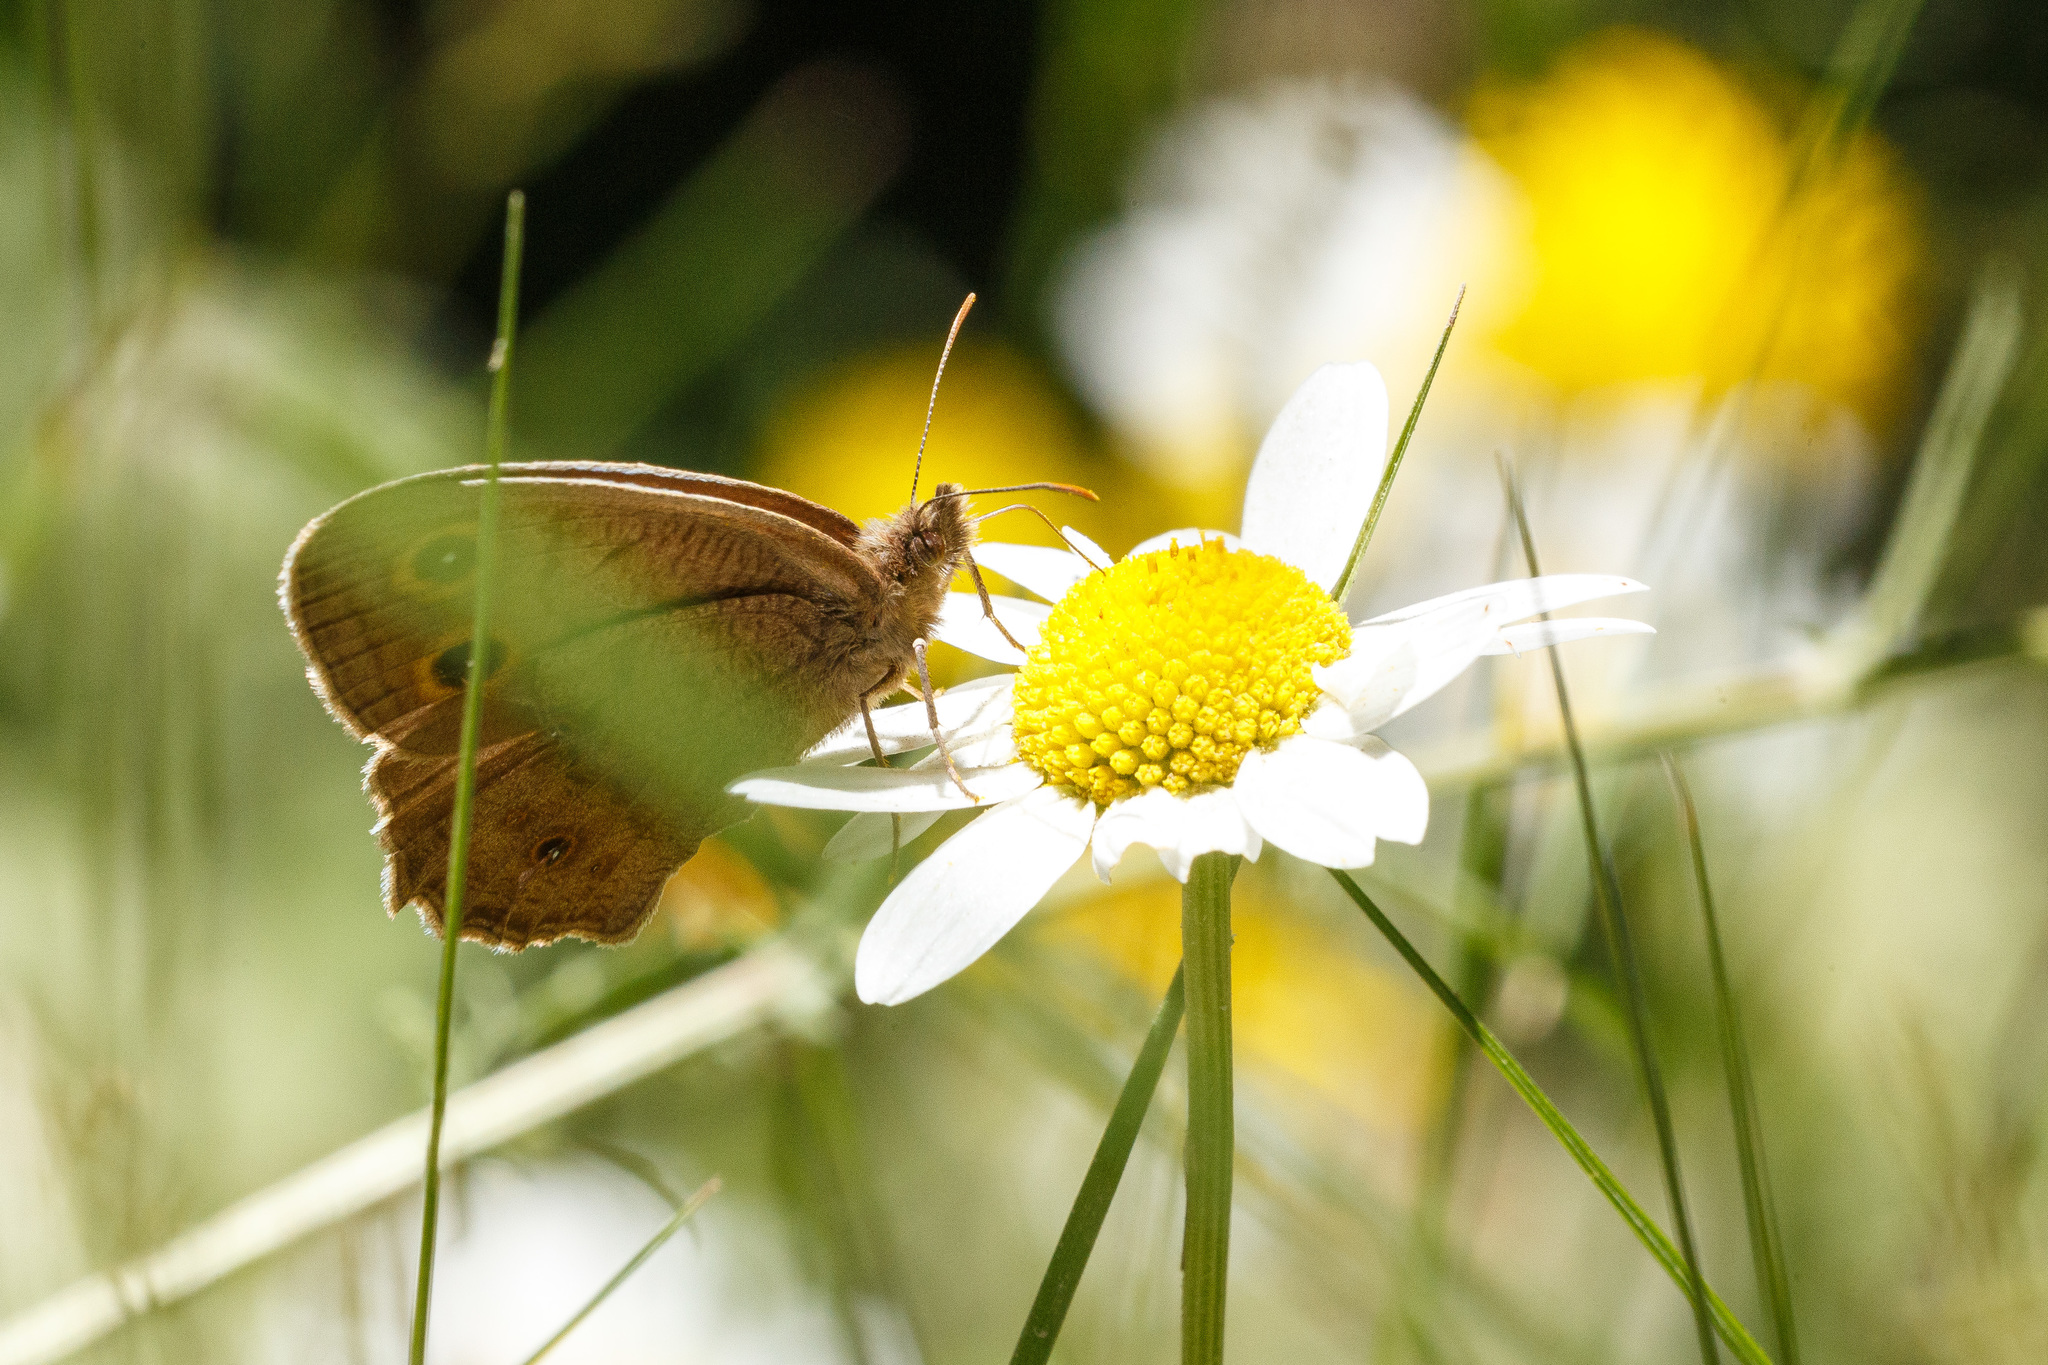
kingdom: Animalia
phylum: Arthropoda
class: Insecta
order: Lepidoptera
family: Nymphalidae
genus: Cercyonis
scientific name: Cercyonis pegala
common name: Common wood-nymph
